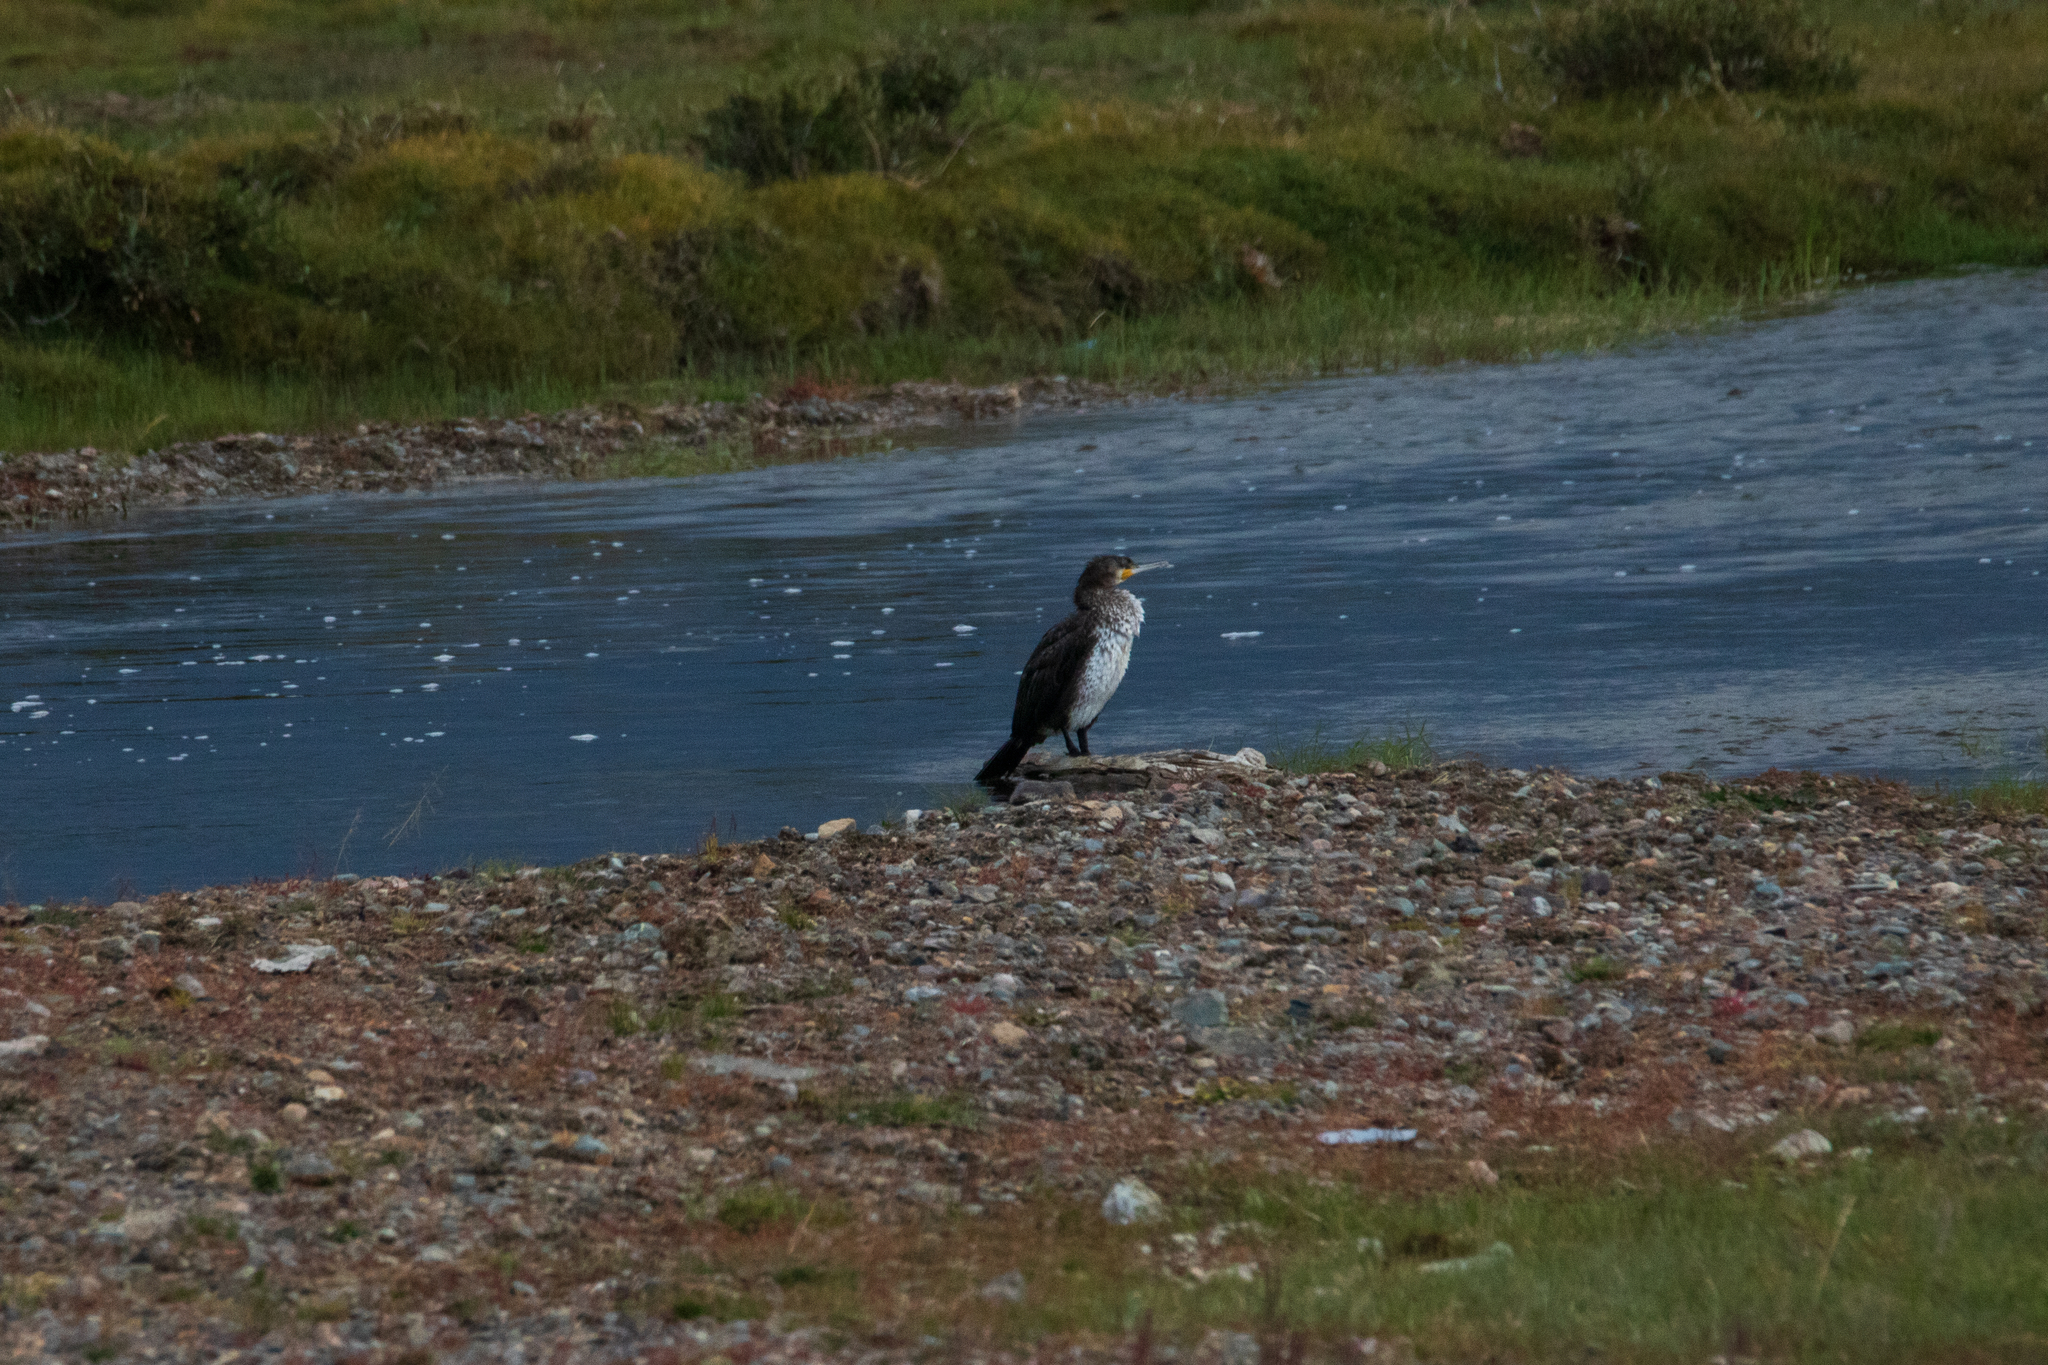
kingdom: Animalia
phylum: Chordata
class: Aves
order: Suliformes
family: Phalacrocoracidae
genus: Phalacrocorax
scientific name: Phalacrocorax carbo
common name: Great cormorant
